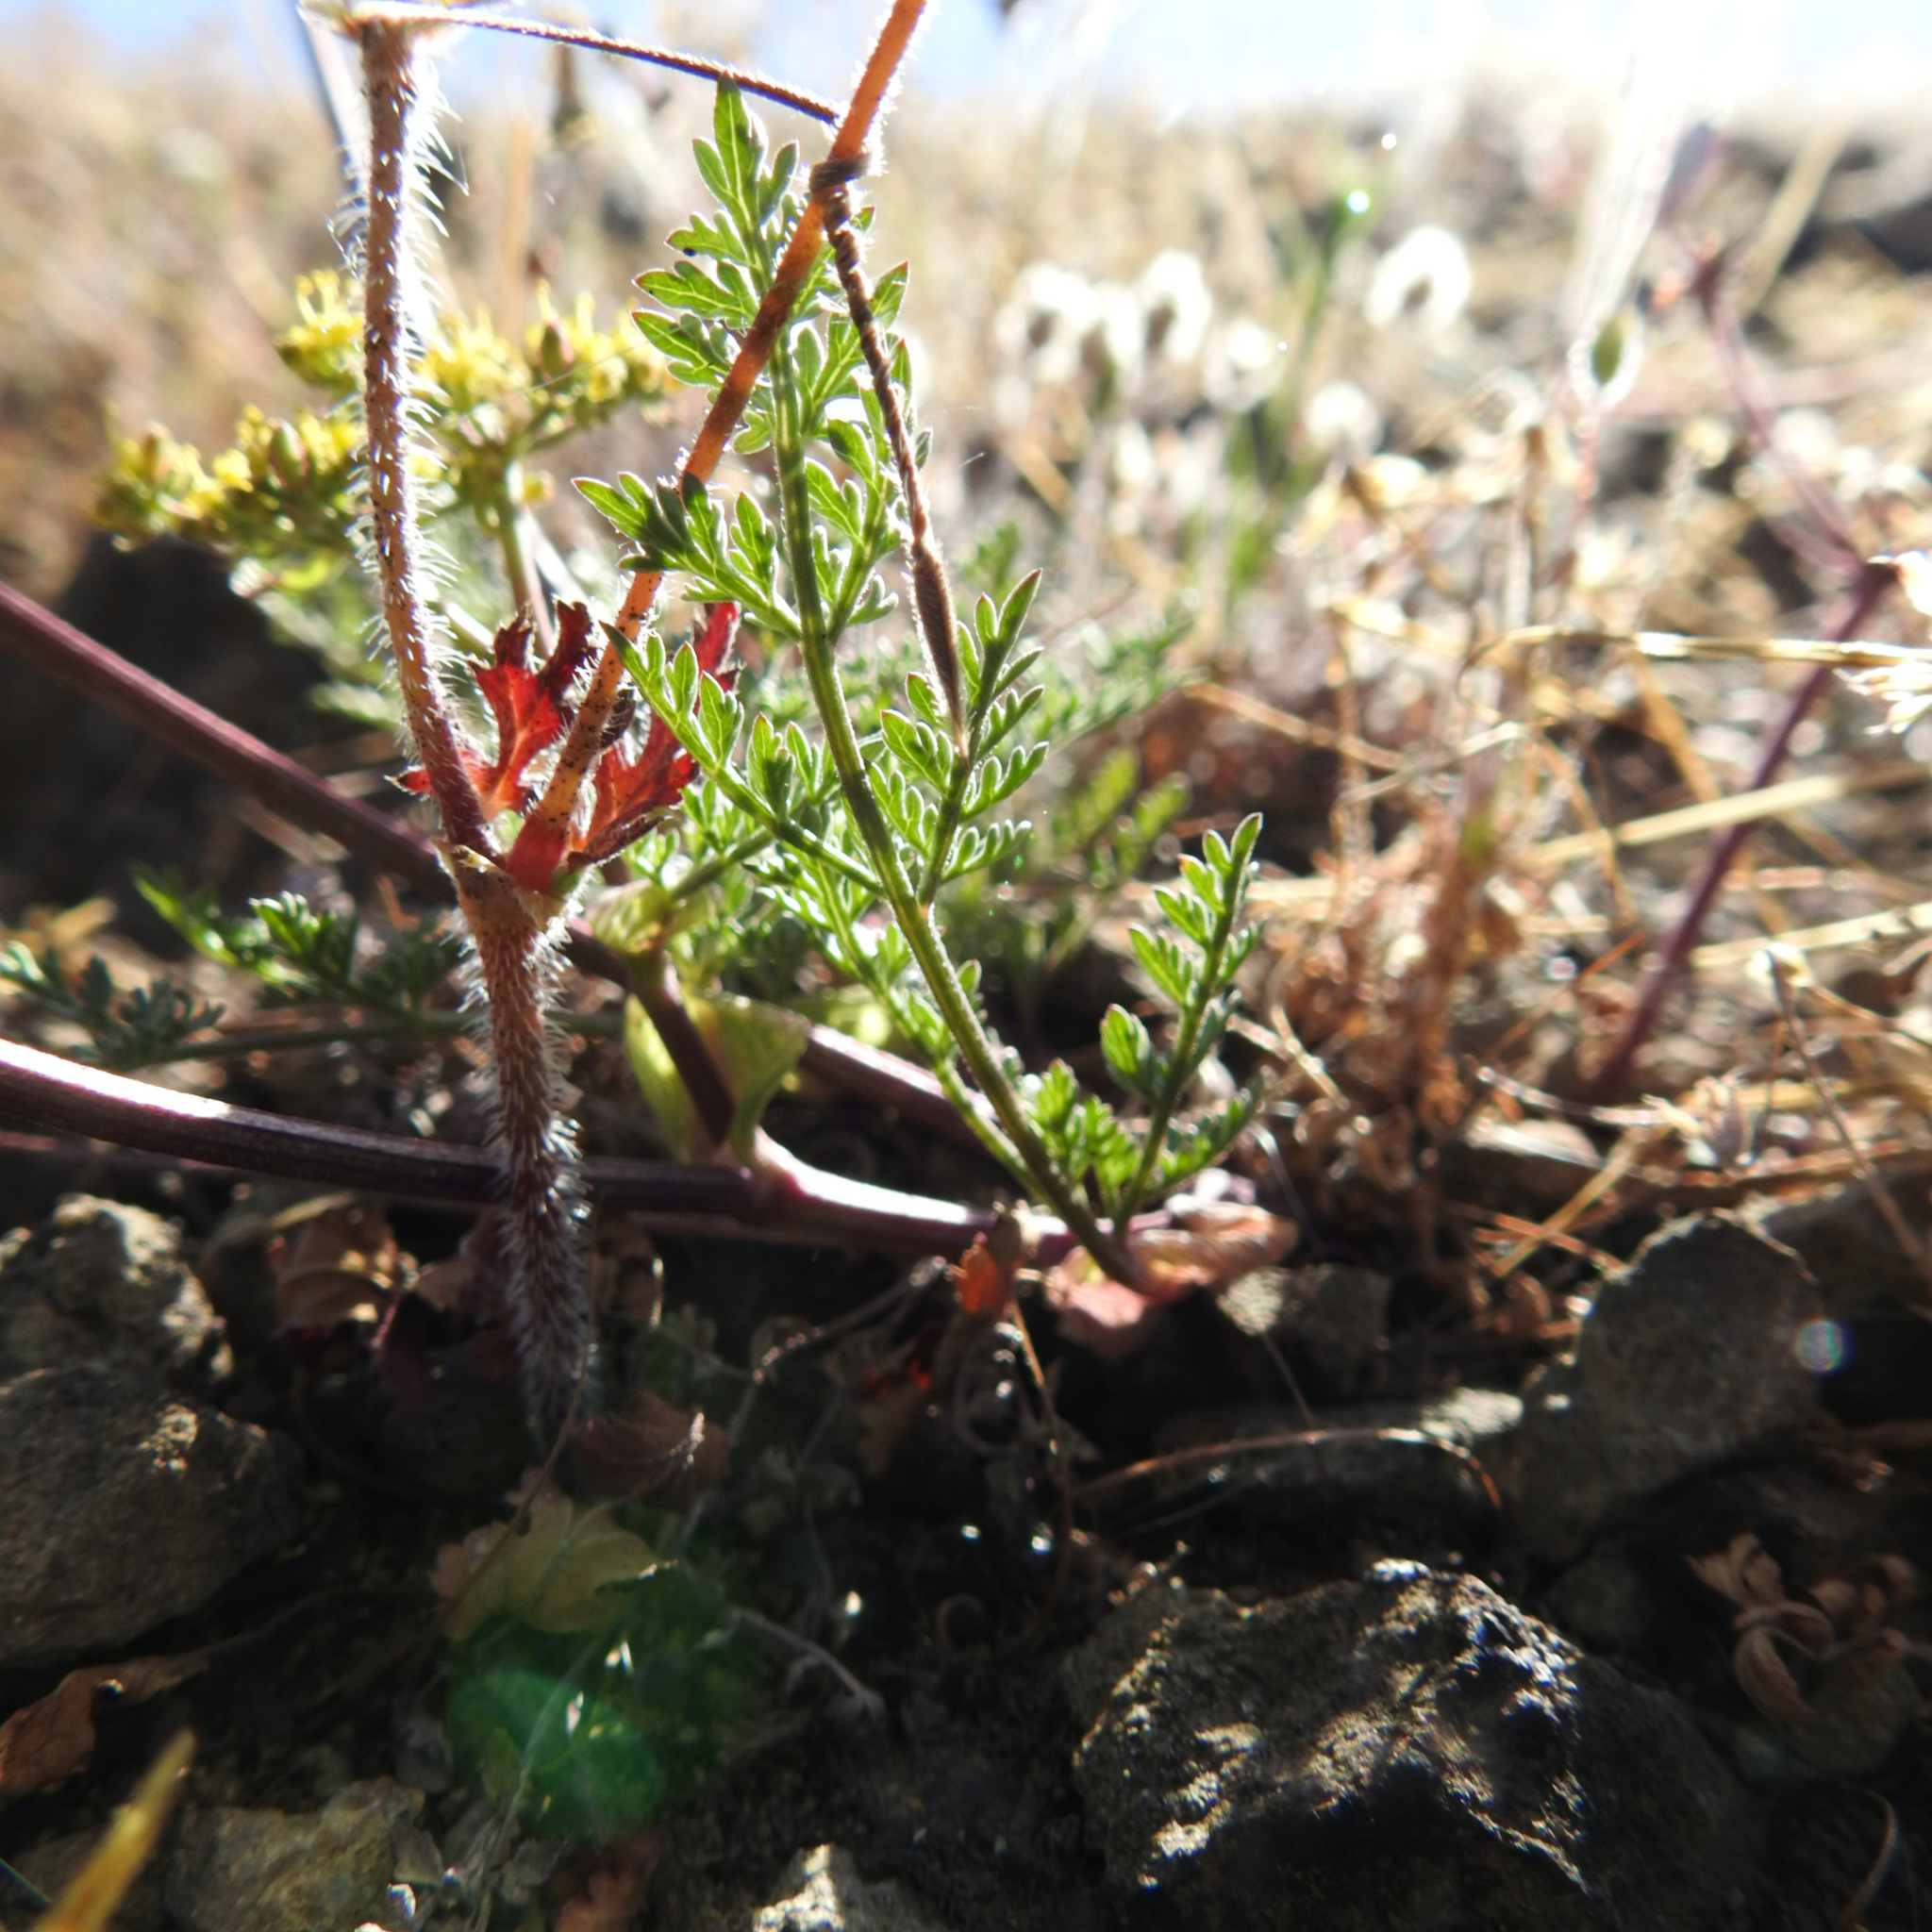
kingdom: Plantae
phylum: Tracheophyta
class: Magnoliopsida
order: Geraniales
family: Geraniaceae
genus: Erodium
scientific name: Erodium cicutarium
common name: Common stork's-bill
